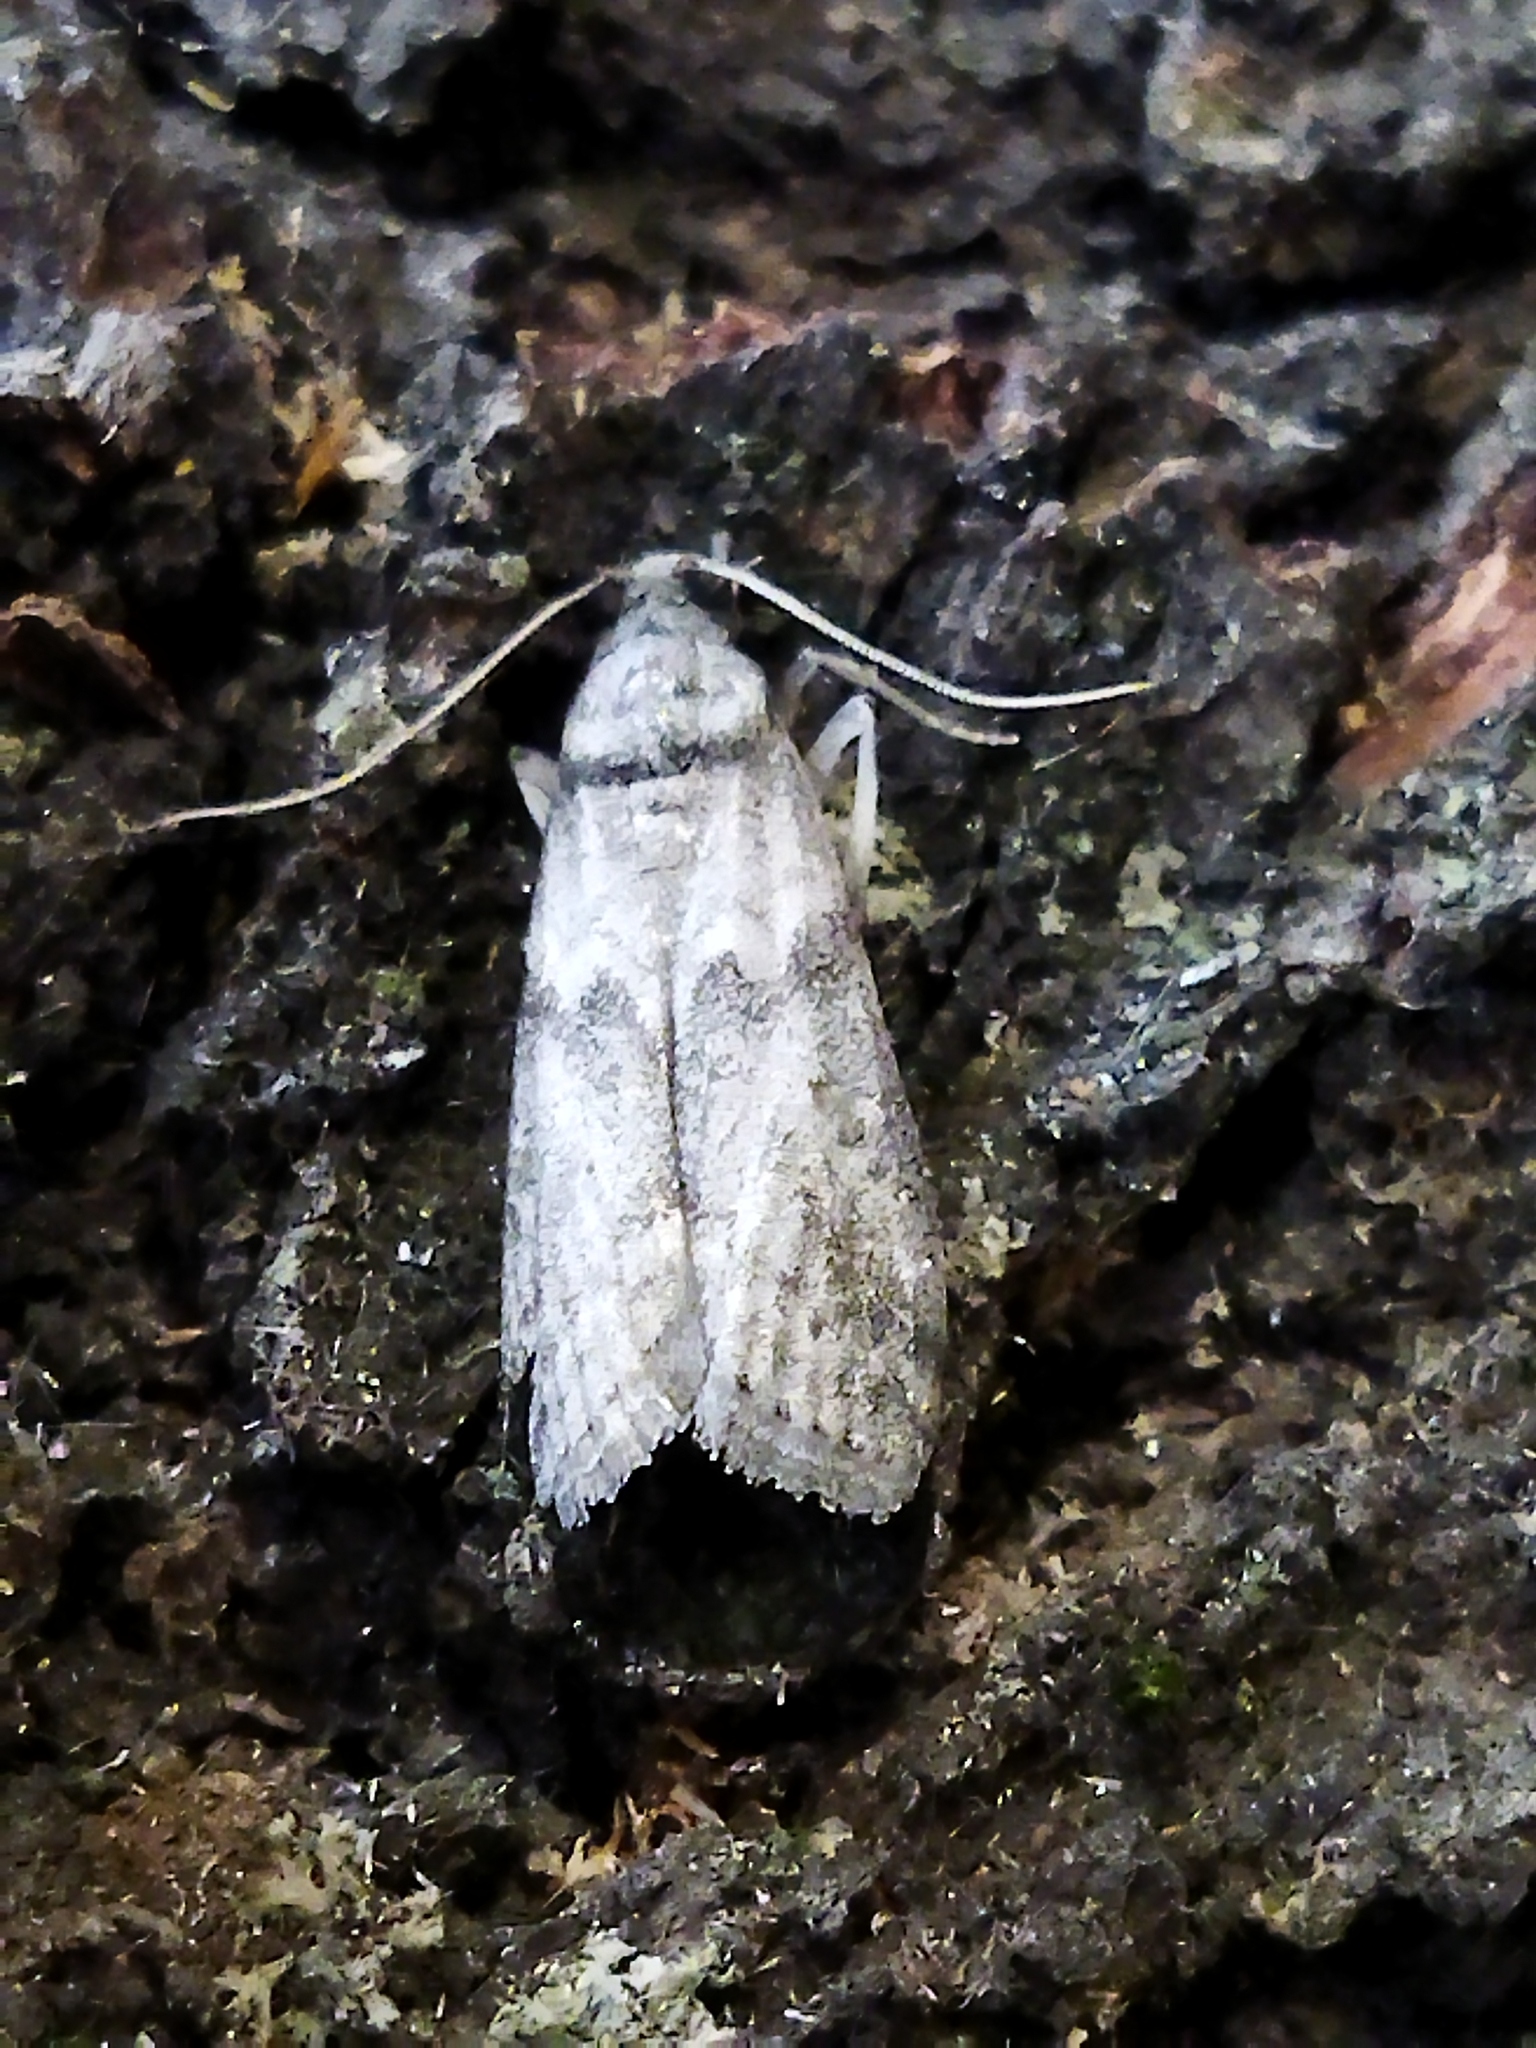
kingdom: Animalia
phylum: Arthropoda
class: Insecta
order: Lepidoptera
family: Pyralidae
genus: Ectomyelois
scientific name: Ectomyelois ceratoniae
